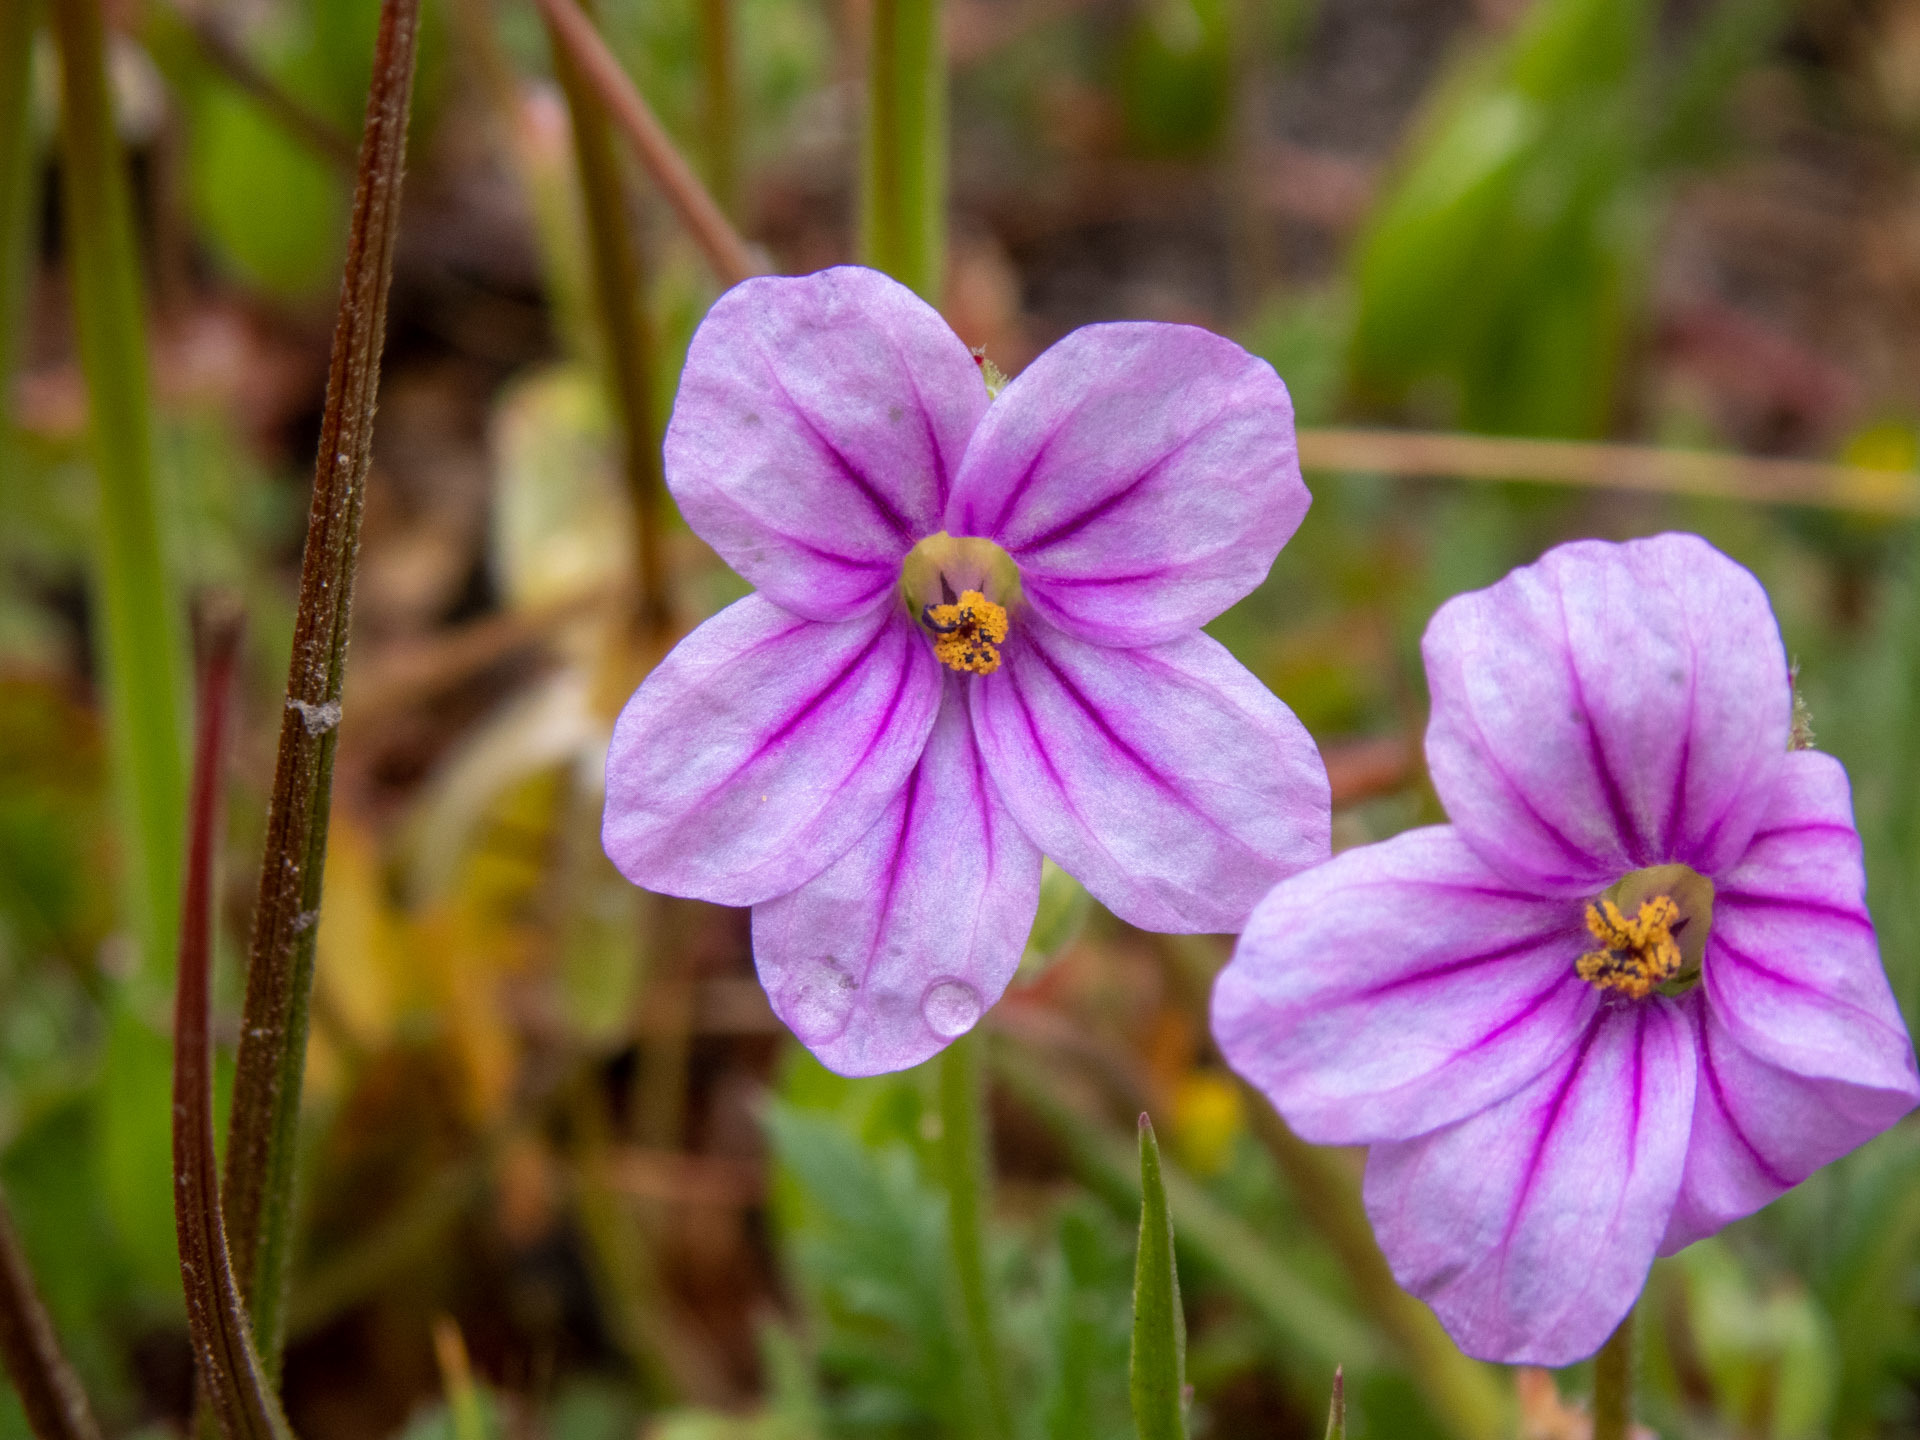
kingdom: Plantae
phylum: Tracheophyta
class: Magnoliopsida
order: Geraniales
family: Geraniaceae
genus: Erodium
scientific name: Erodium botrys
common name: Mediterranean stork's-bill
